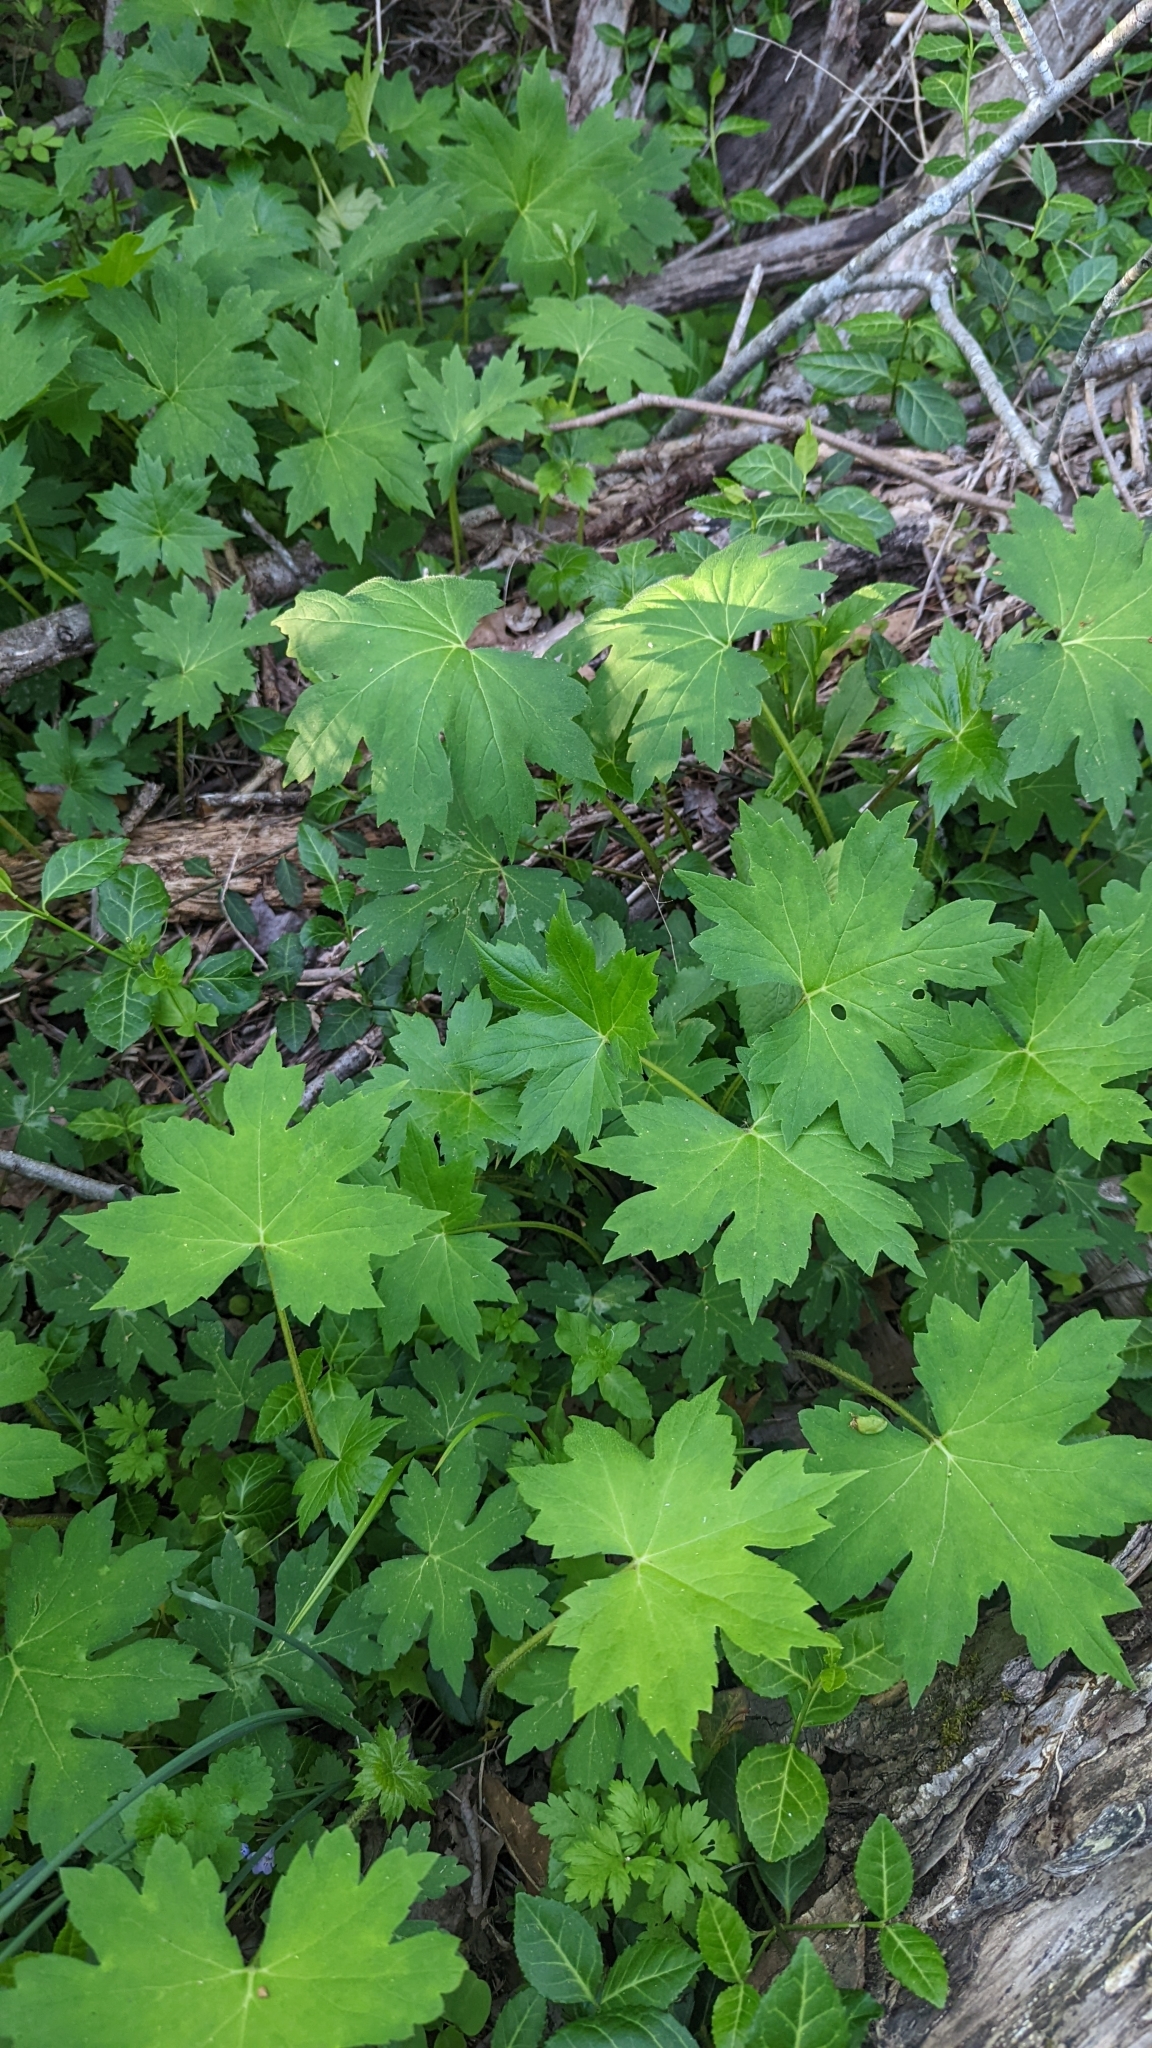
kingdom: Plantae
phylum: Tracheophyta
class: Magnoliopsida
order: Boraginales
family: Hydrophyllaceae
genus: Hydrophyllum
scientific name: Hydrophyllum canadense
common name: Canada waterleaf
